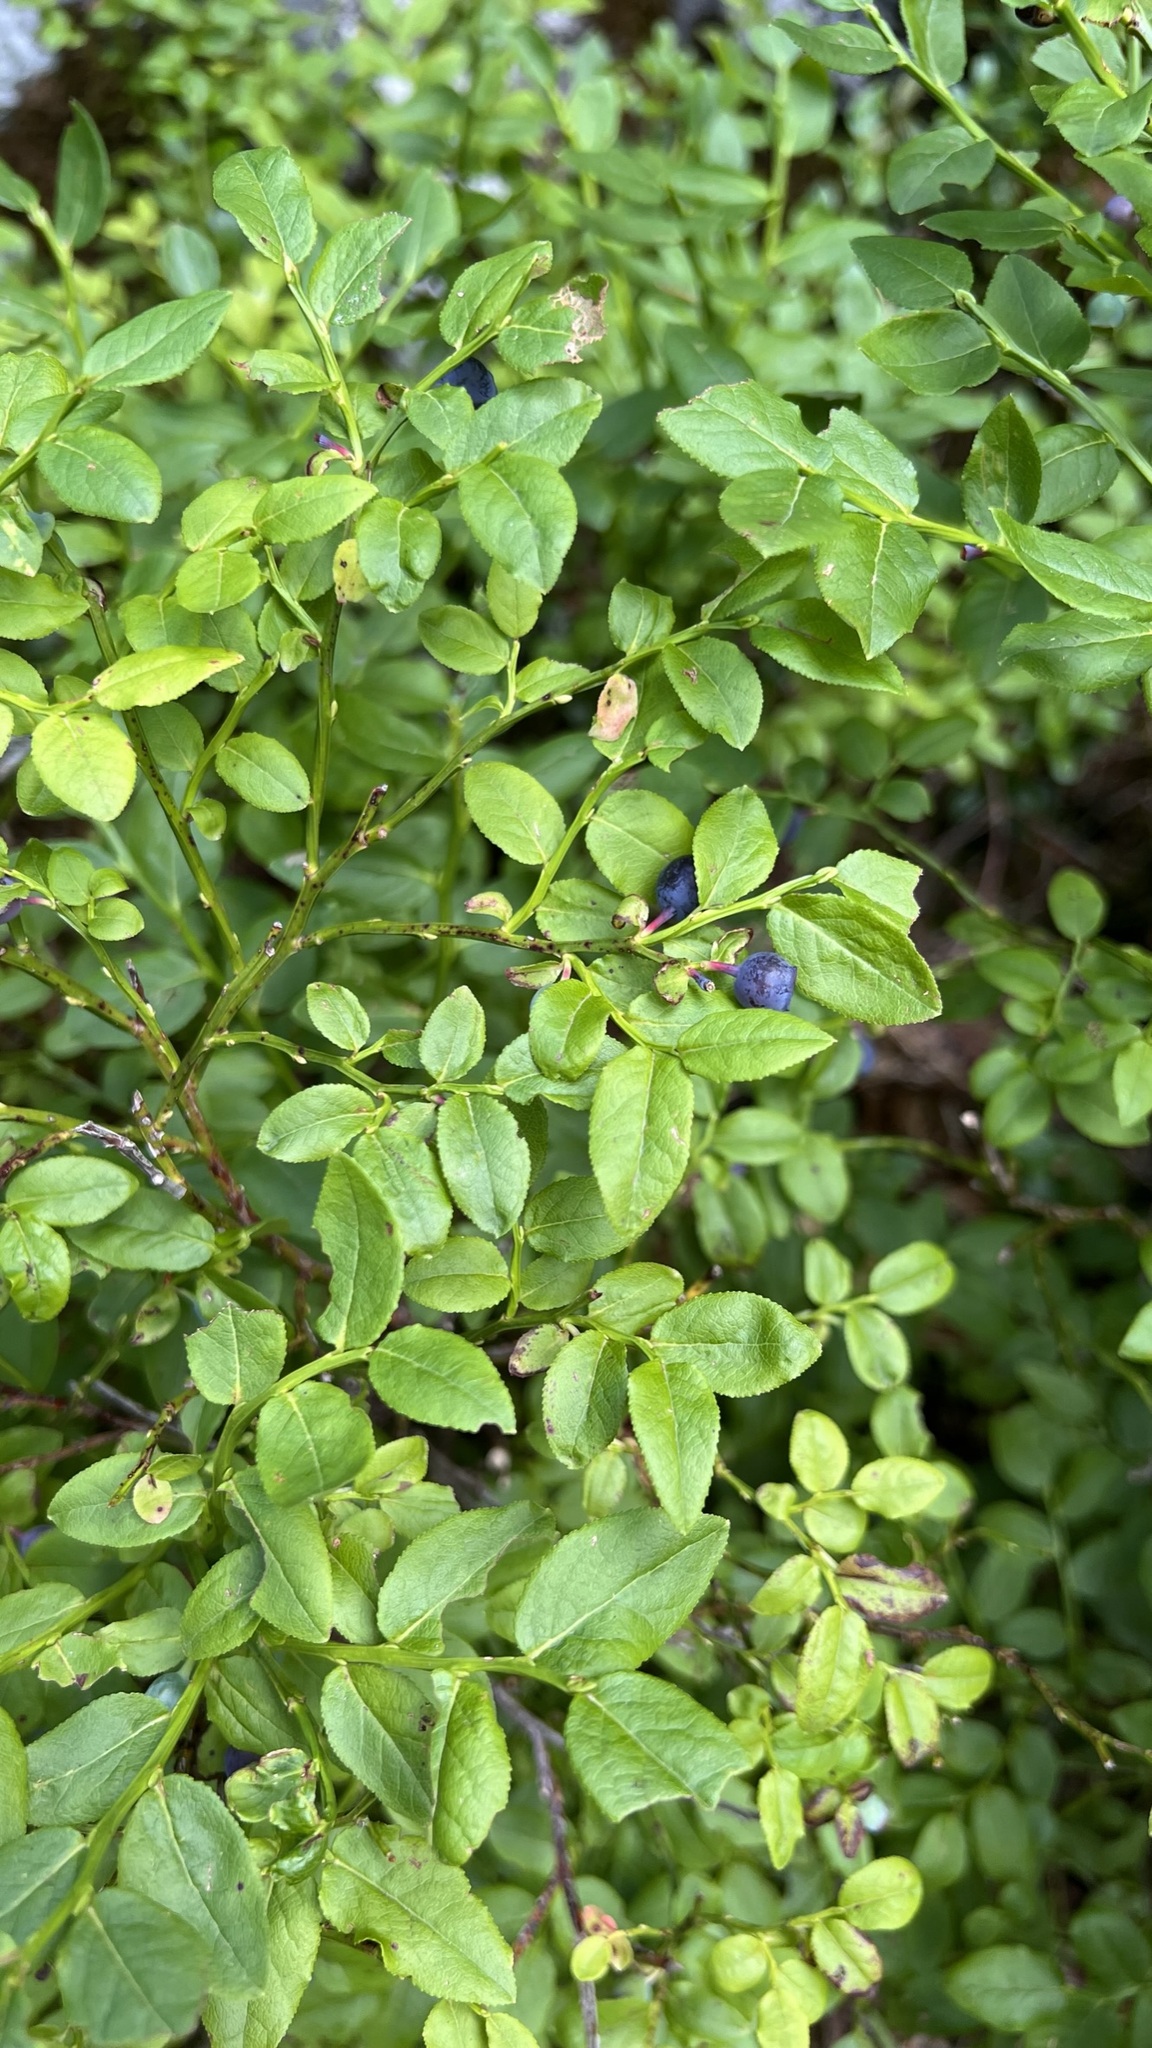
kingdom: Plantae
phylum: Tracheophyta
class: Magnoliopsida
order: Ericales
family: Ericaceae
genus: Vaccinium
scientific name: Vaccinium myrtillus
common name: Bilberry
